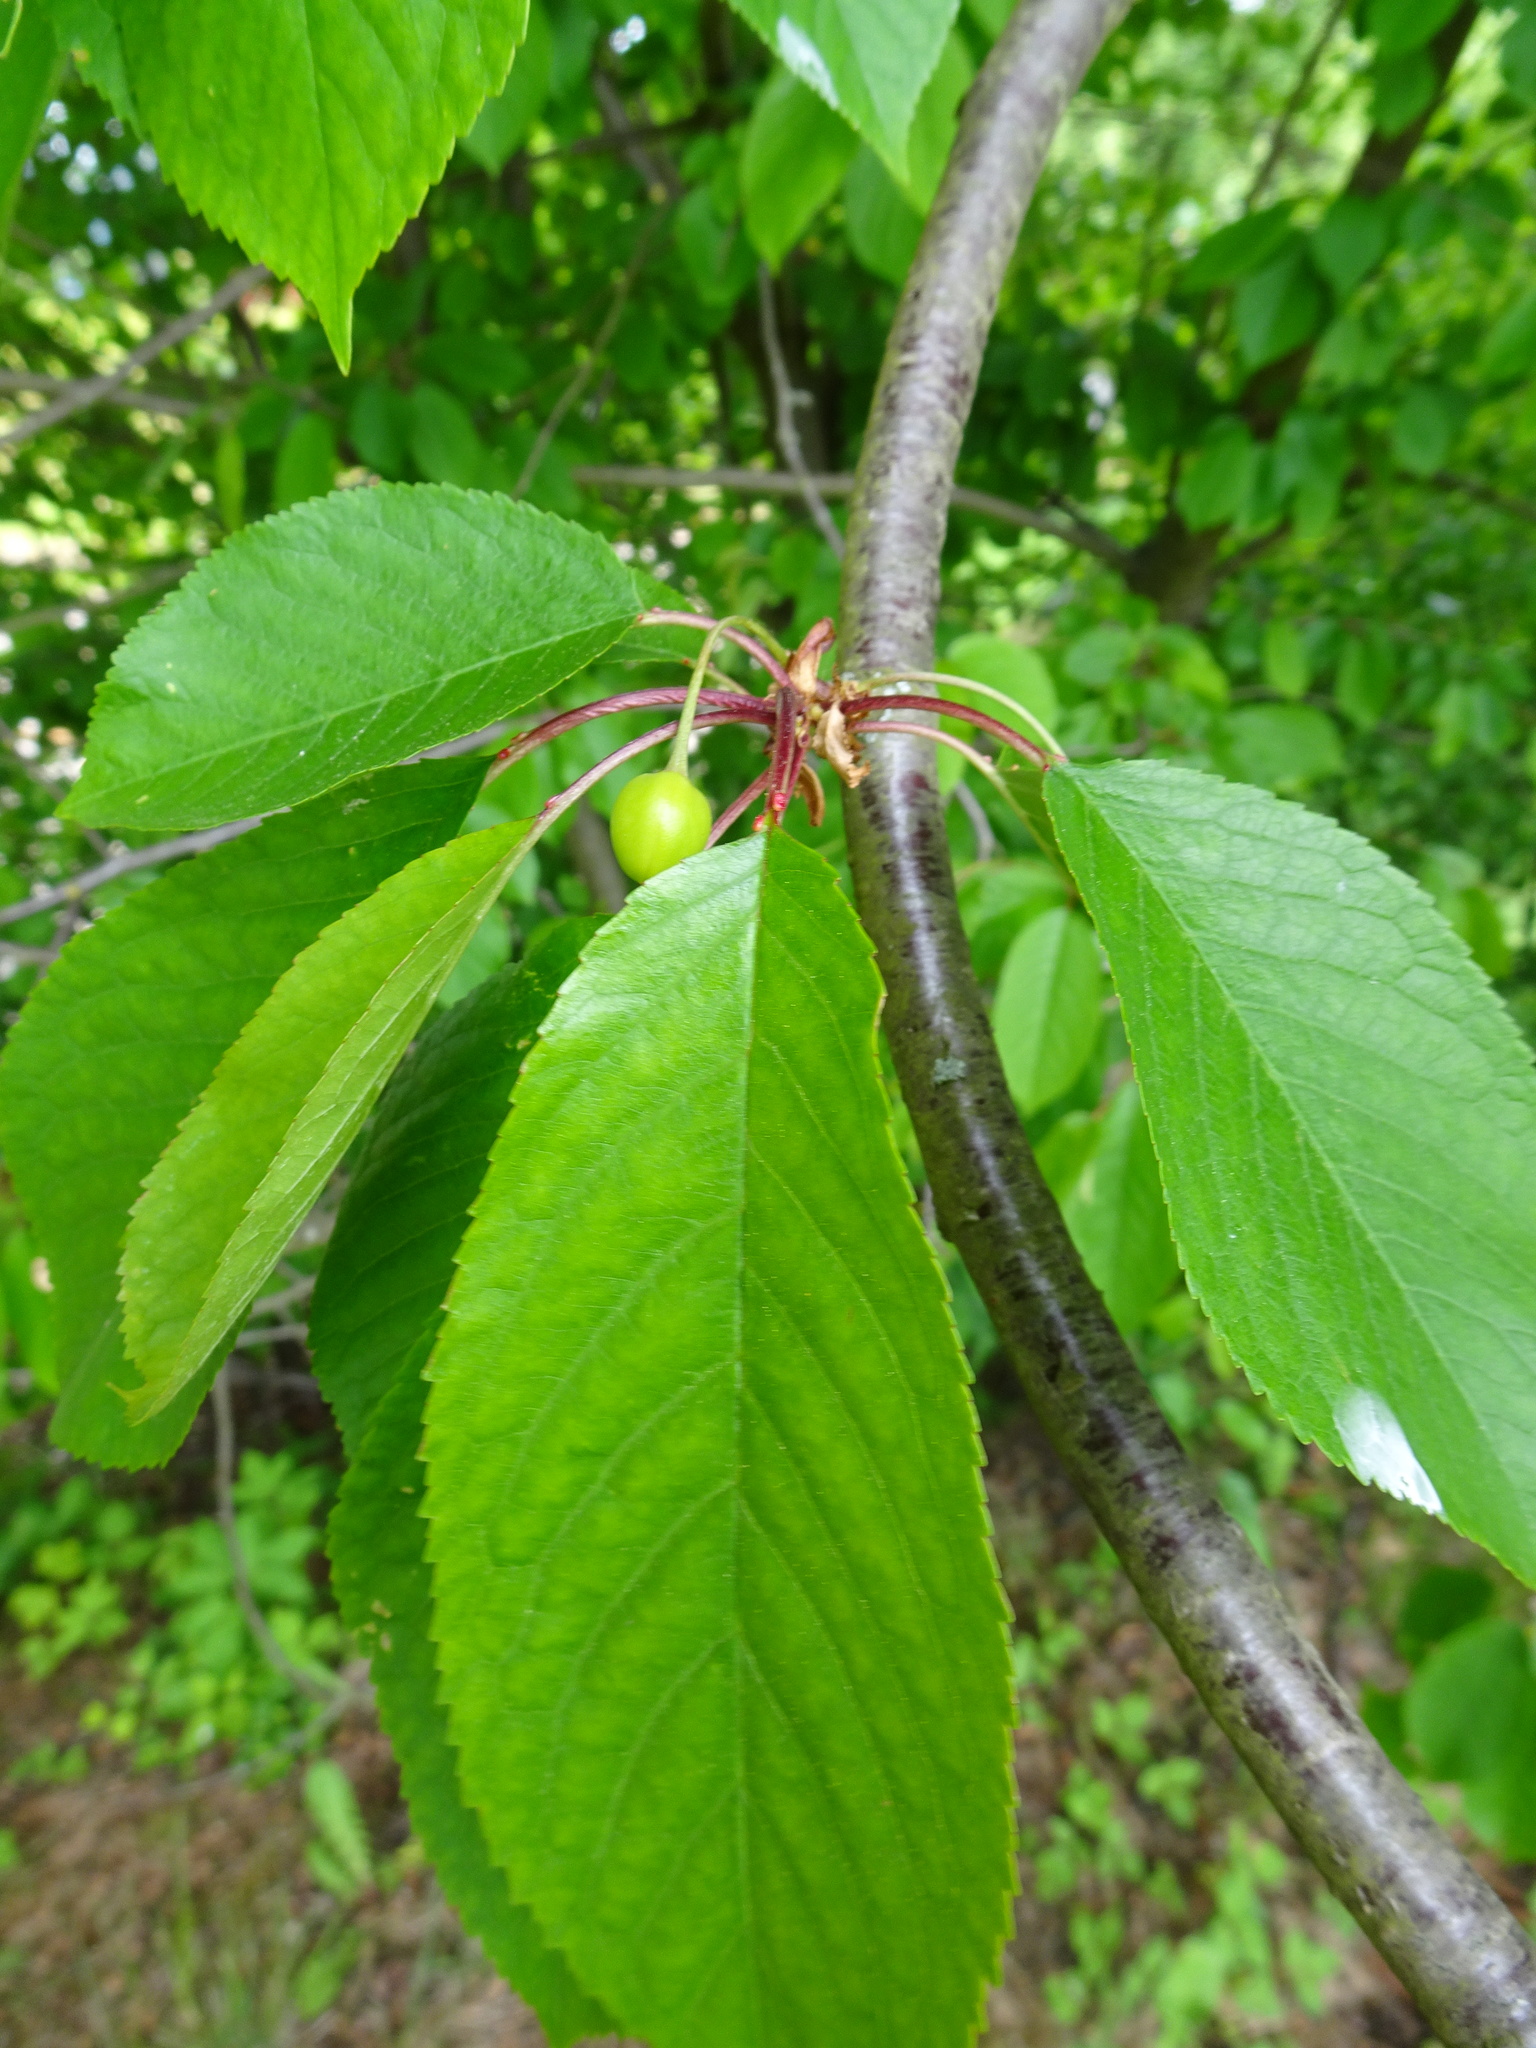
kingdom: Plantae
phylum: Tracheophyta
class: Magnoliopsida
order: Rosales
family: Rosaceae
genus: Prunus
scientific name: Prunus avium
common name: Sweet cherry
